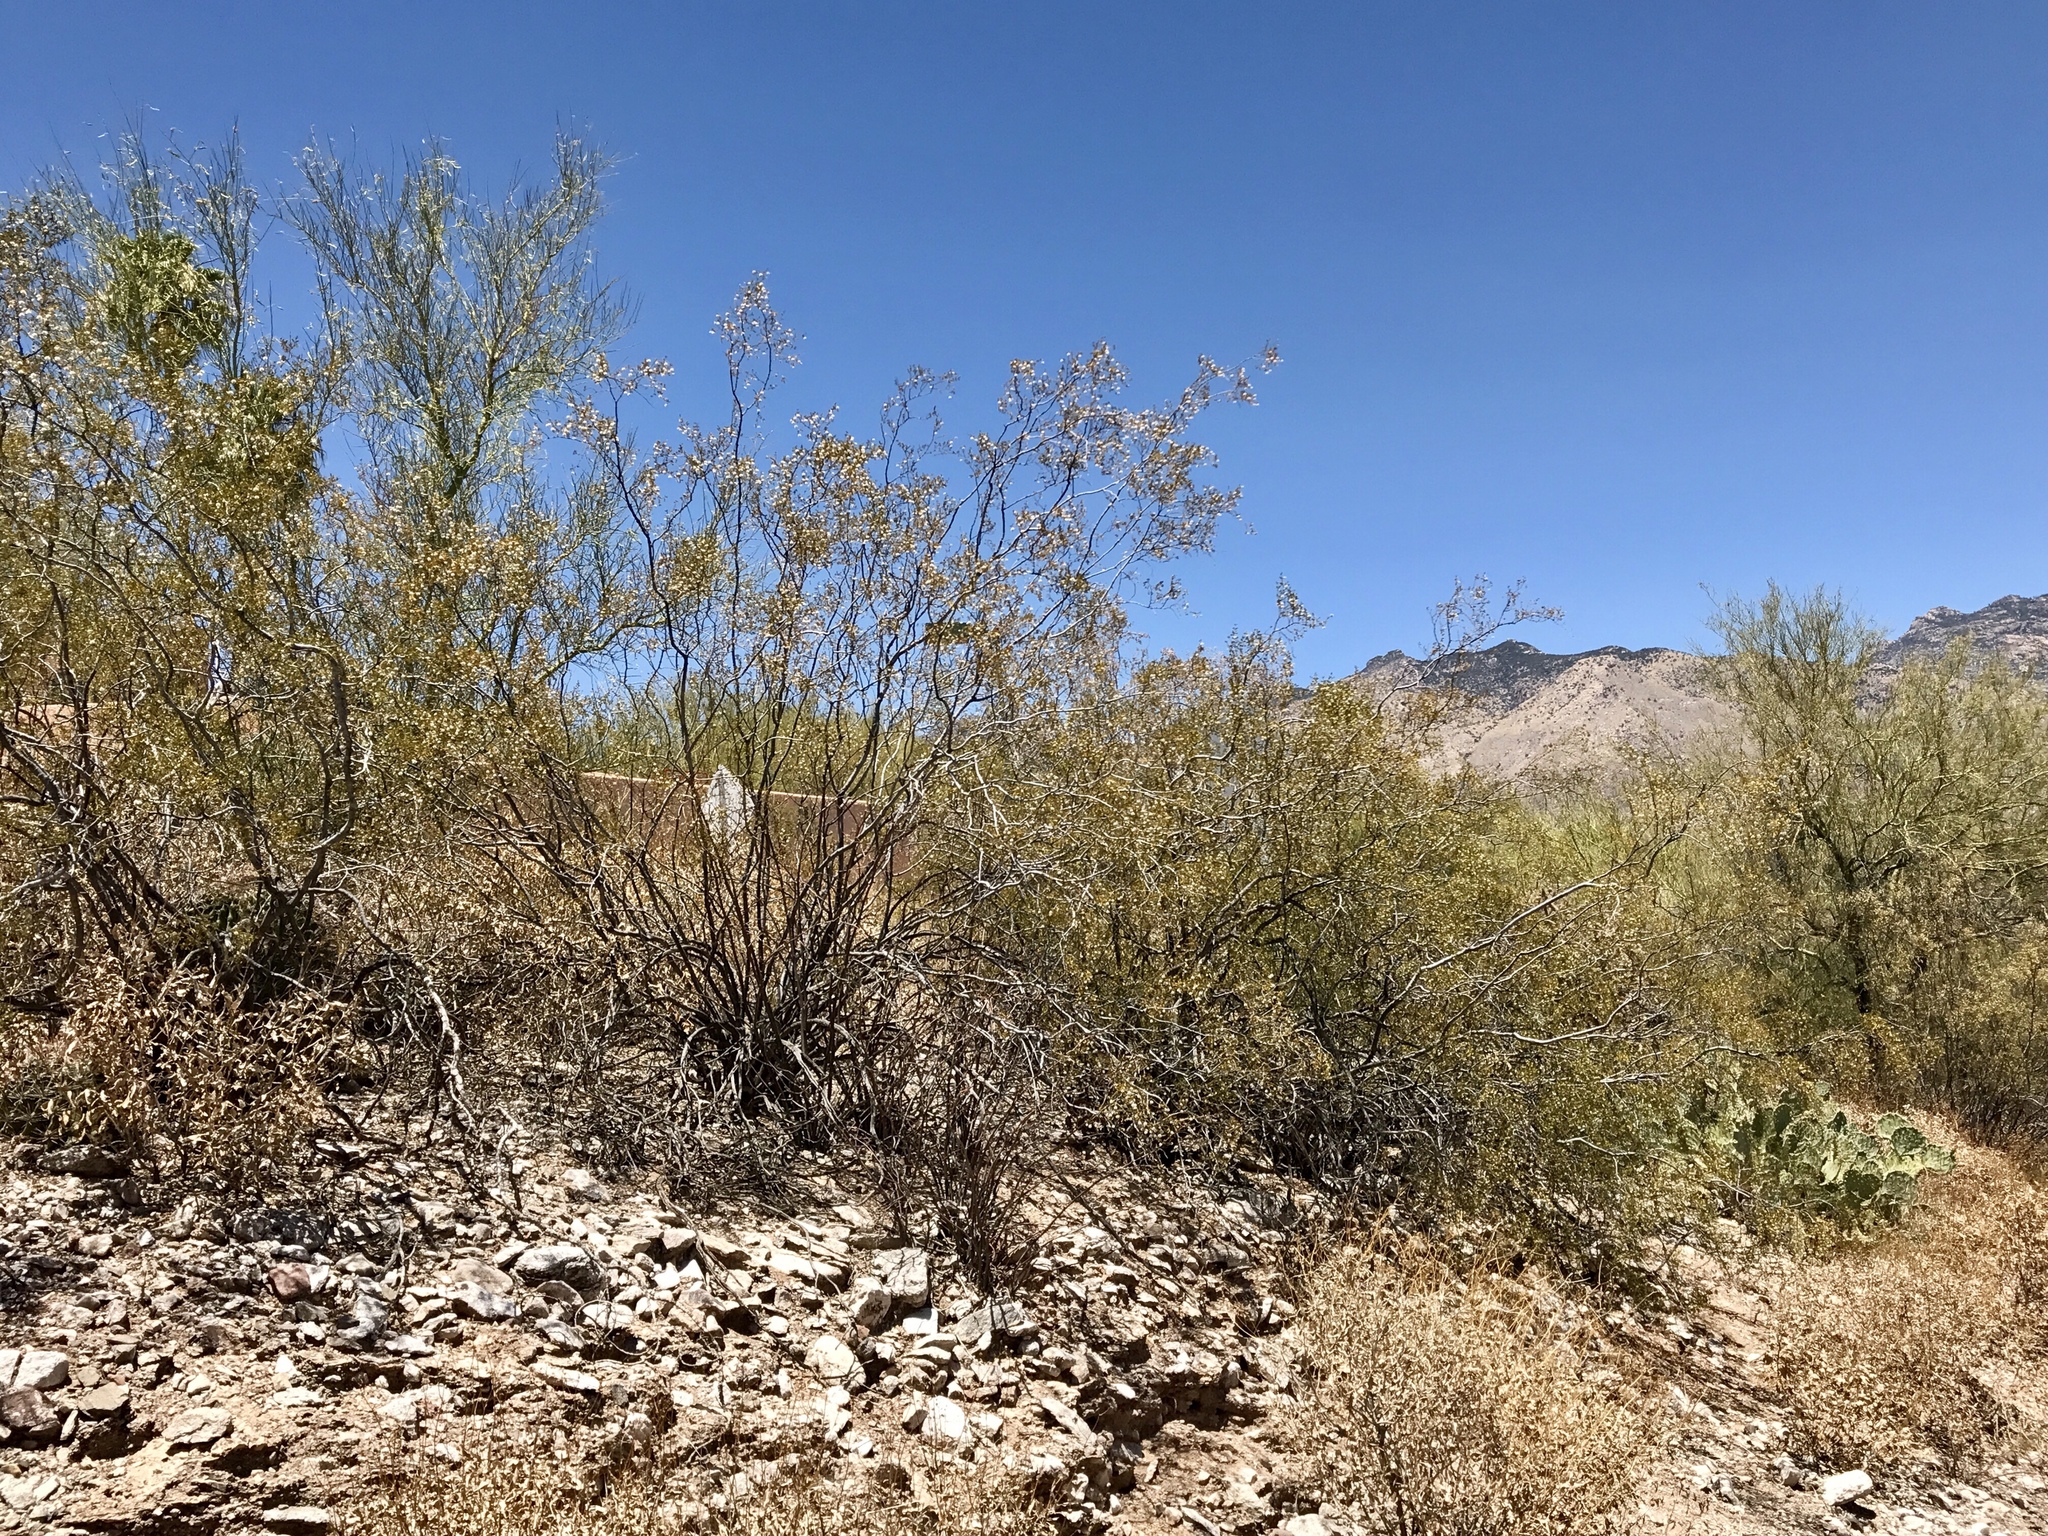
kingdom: Plantae
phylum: Tracheophyta
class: Magnoliopsida
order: Zygophyllales
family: Zygophyllaceae
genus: Larrea
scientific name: Larrea tridentata
